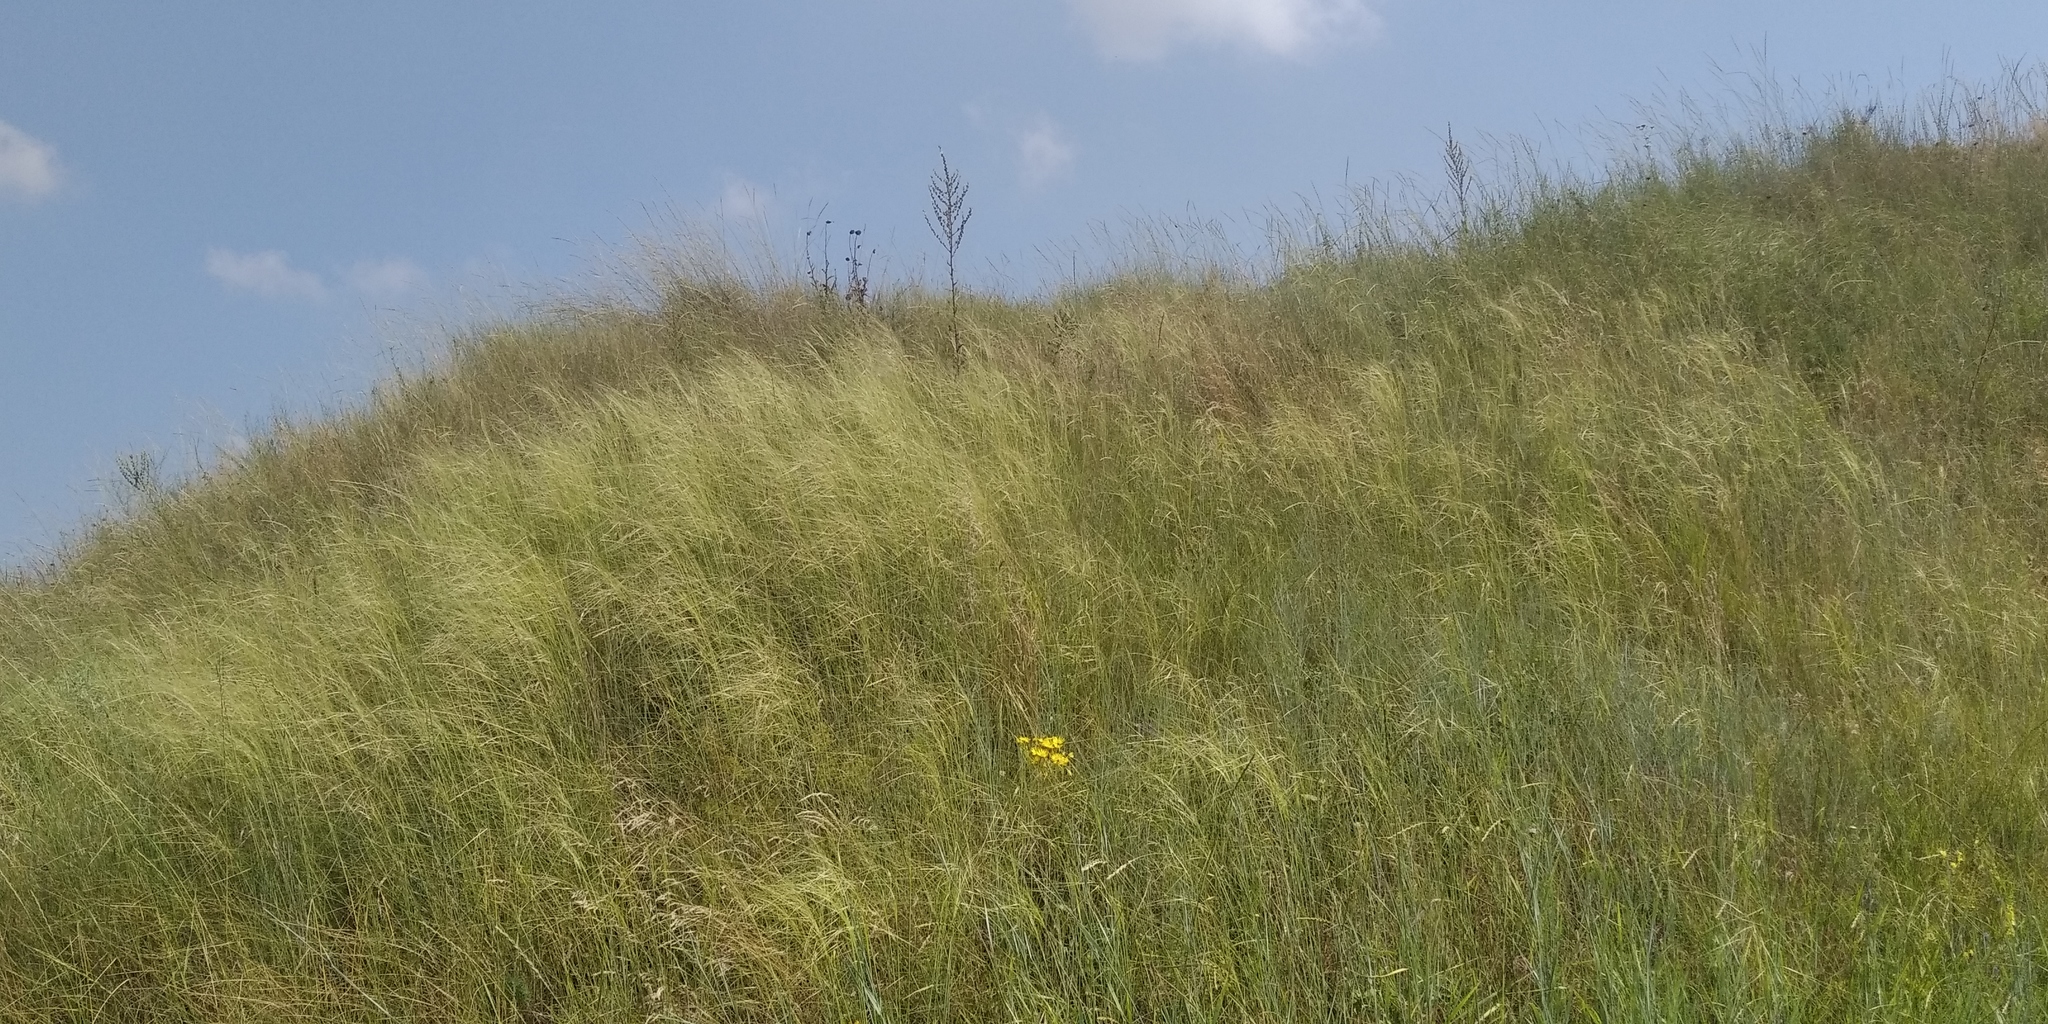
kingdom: Plantae
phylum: Tracheophyta
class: Liliopsida
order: Poales
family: Poaceae
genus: Stipa
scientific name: Stipa capillata
